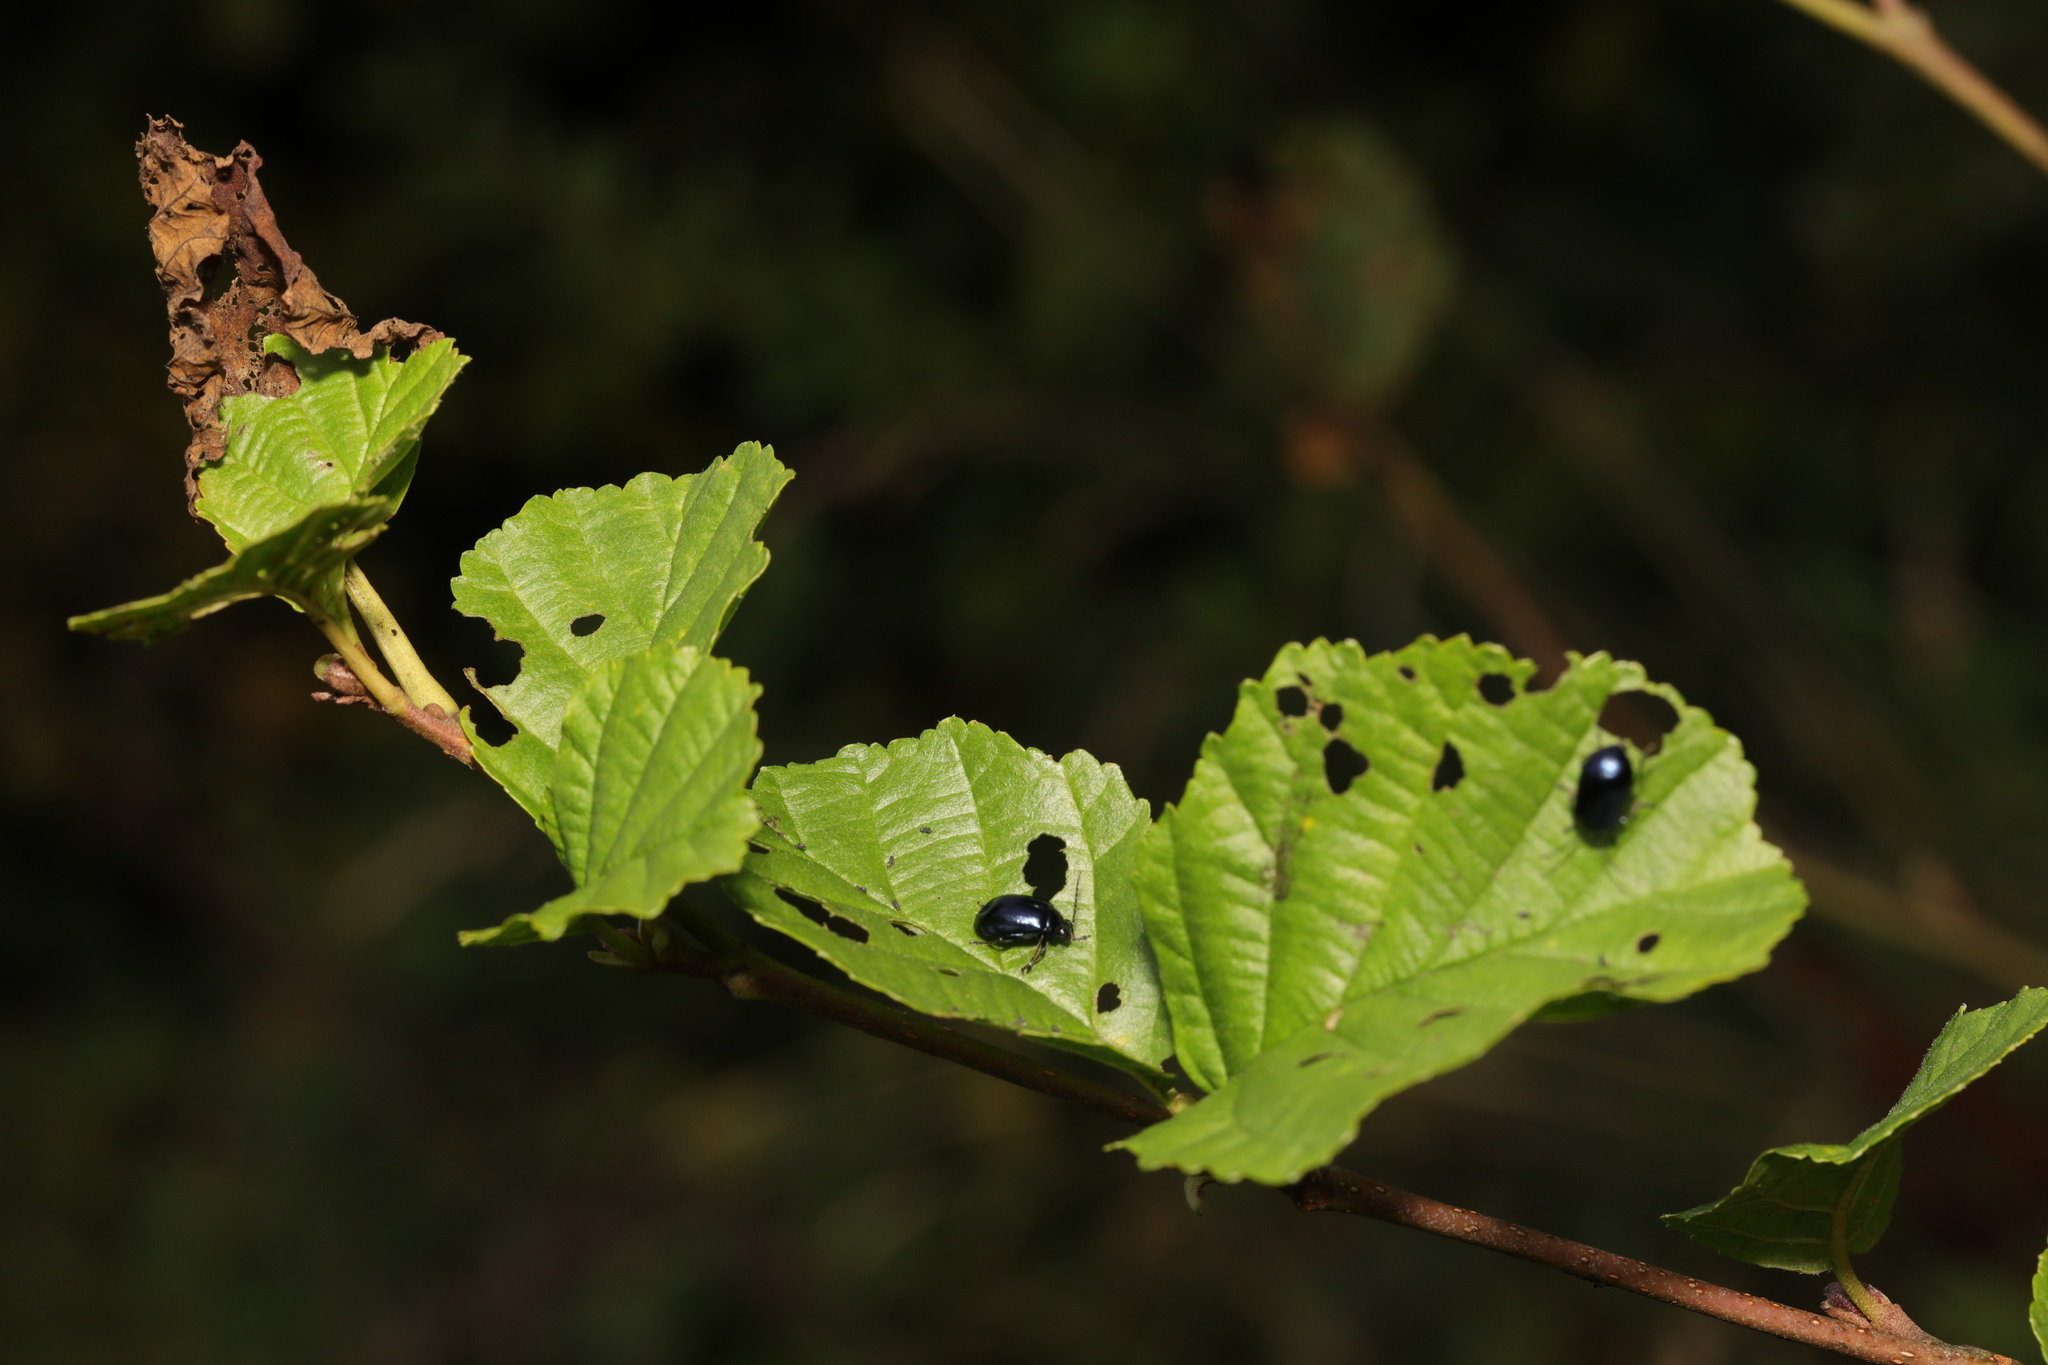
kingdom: Plantae
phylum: Tracheophyta
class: Magnoliopsida
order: Fagales
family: Betulaceae
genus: Alnus
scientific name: Alnus glutinosa
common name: Black alder
